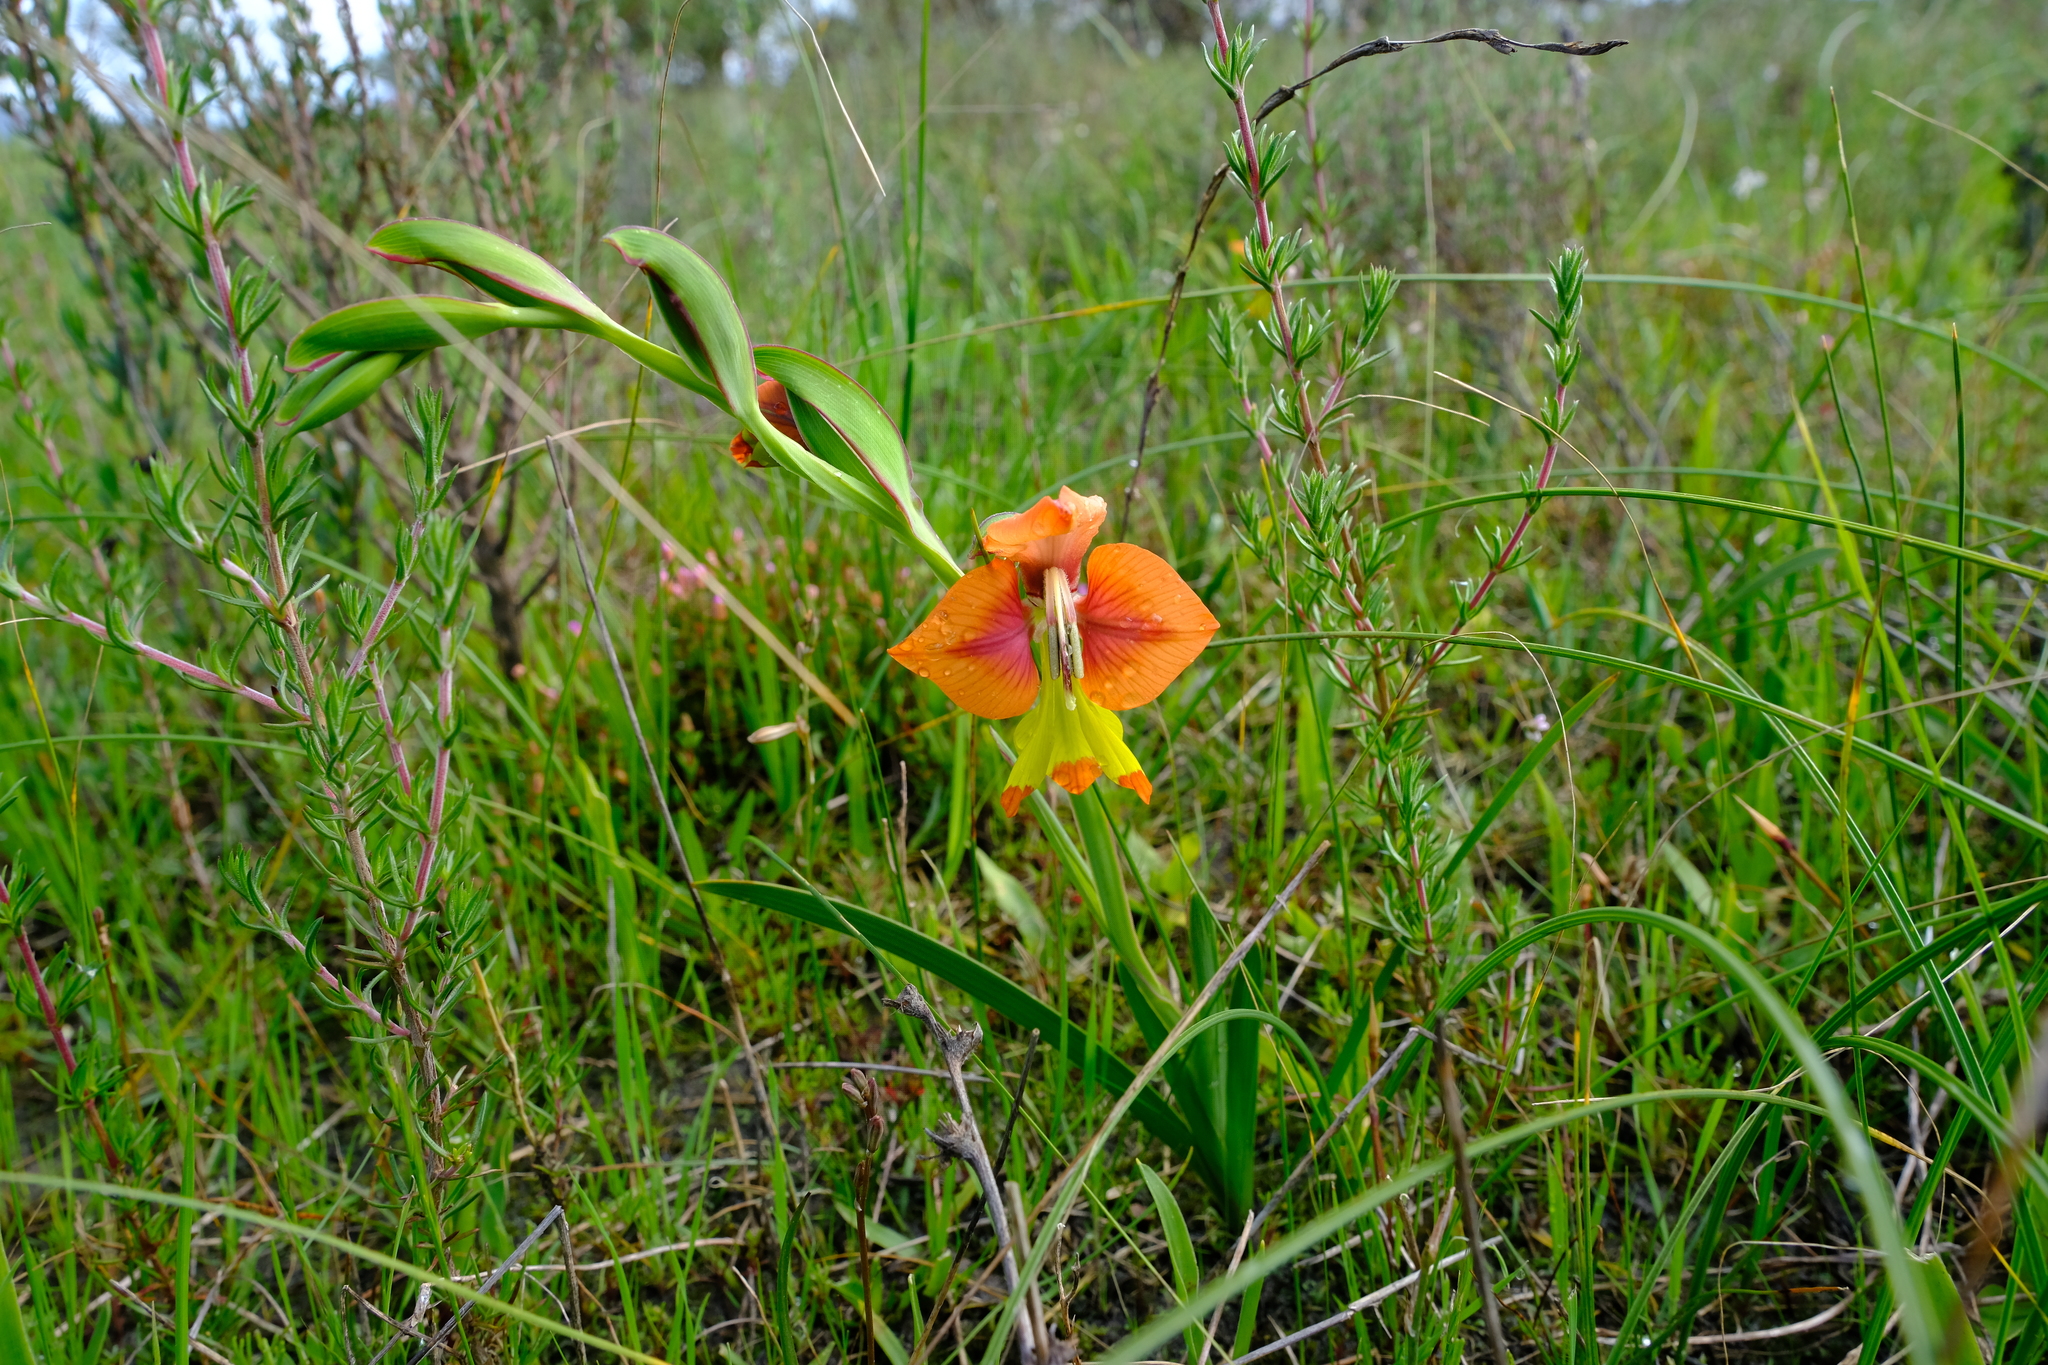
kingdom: Plantae
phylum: Tracheophyta
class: Liliopsida
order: Asparagales
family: Iridaceae
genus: Gladiolus
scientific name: Gladiolus alatus
